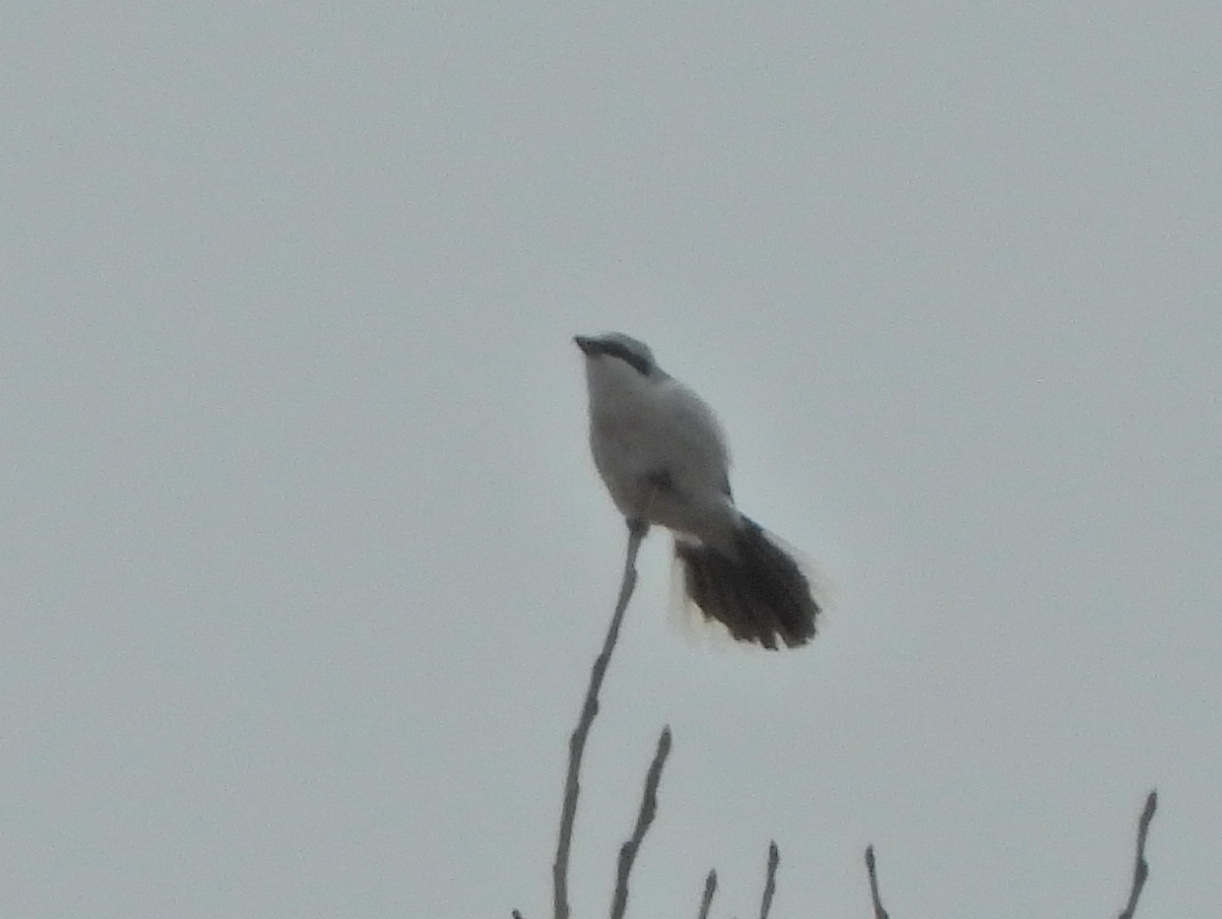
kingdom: Animalia
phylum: Chordata
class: Aves
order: Passeriformes
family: Laniidae
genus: Lanius
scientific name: Lanius excubitor
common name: Great grey shrike
